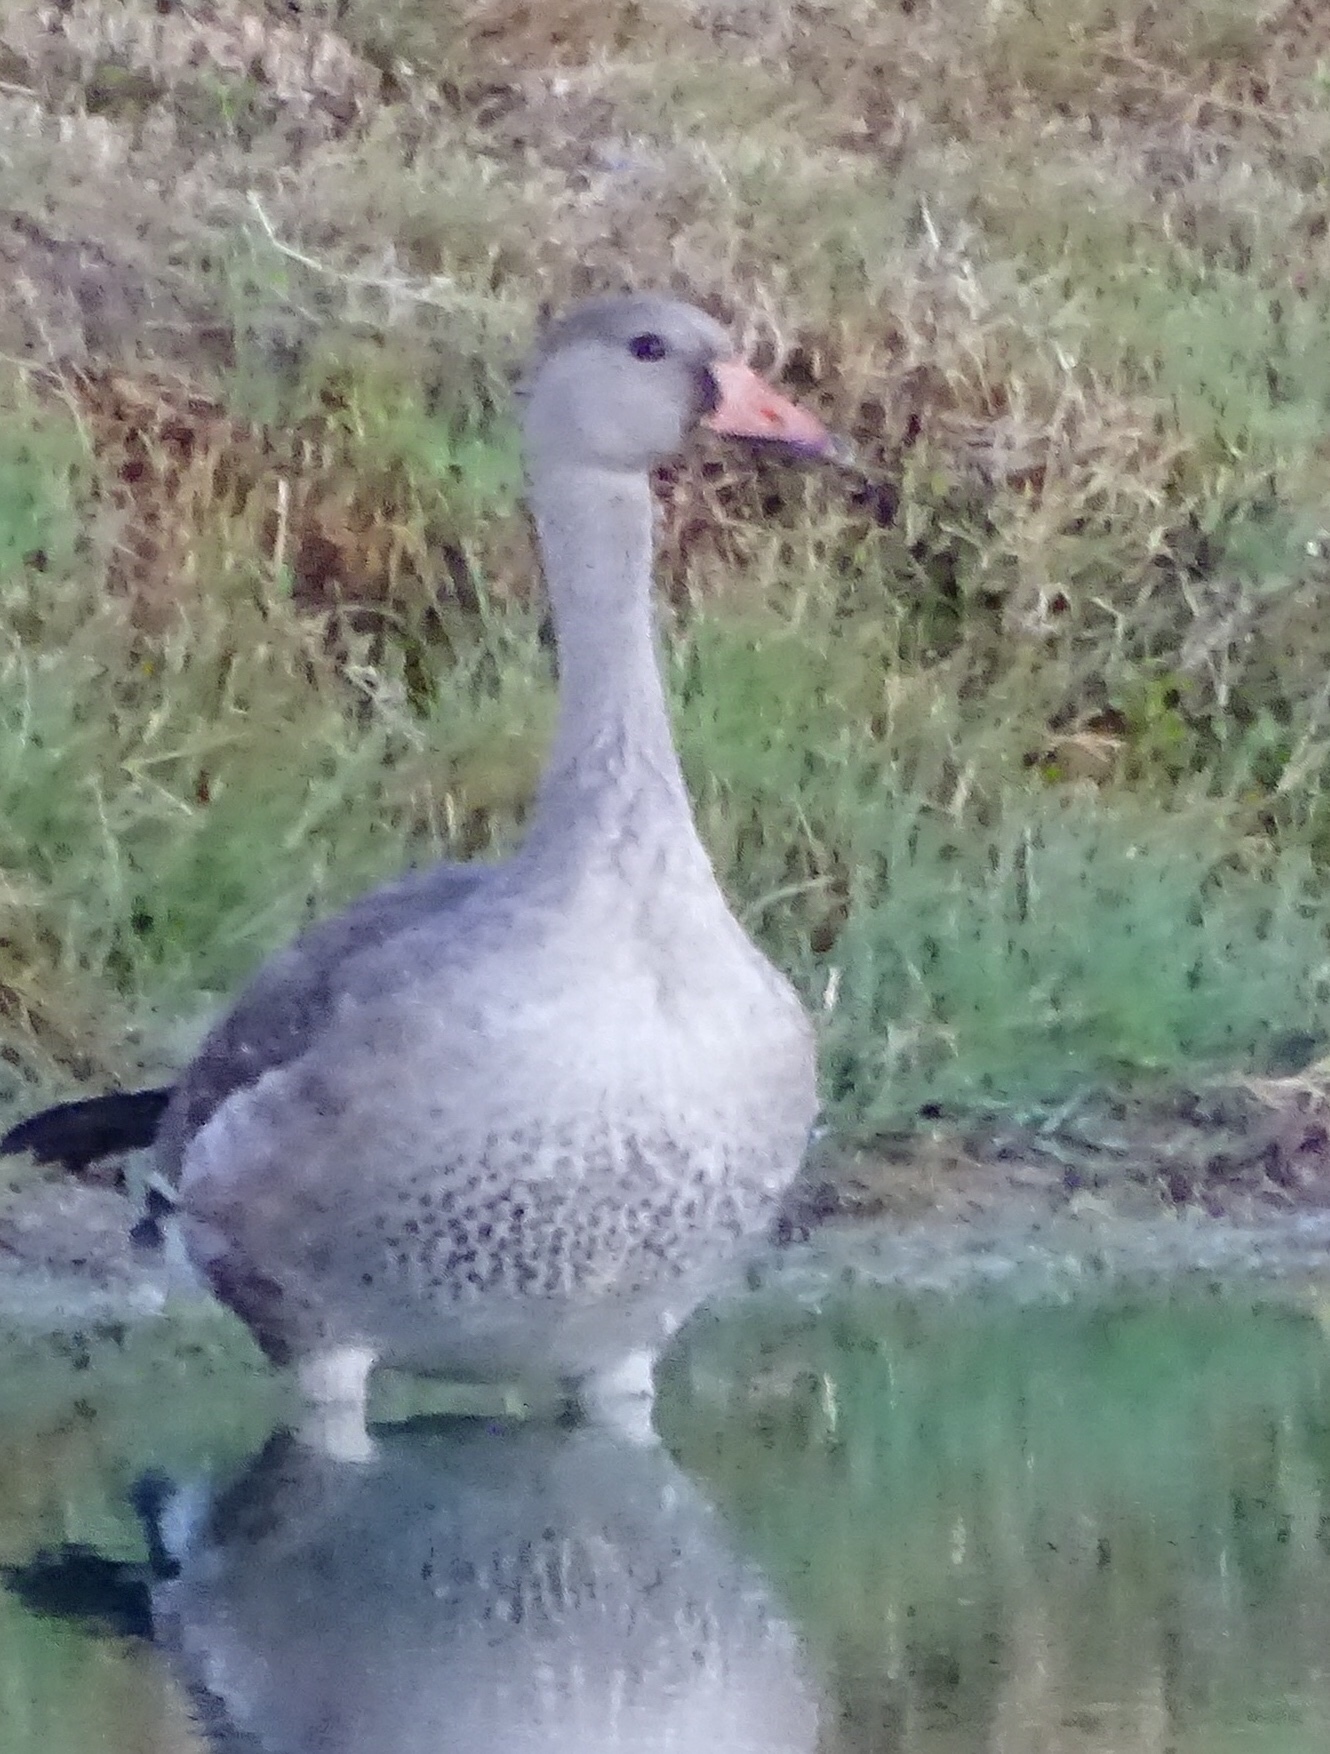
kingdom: Animalia
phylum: Chordata
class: Aves
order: Anseriformes
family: Anatidae
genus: Anser
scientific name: Anser albifrons
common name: Greater white-fronted goose
